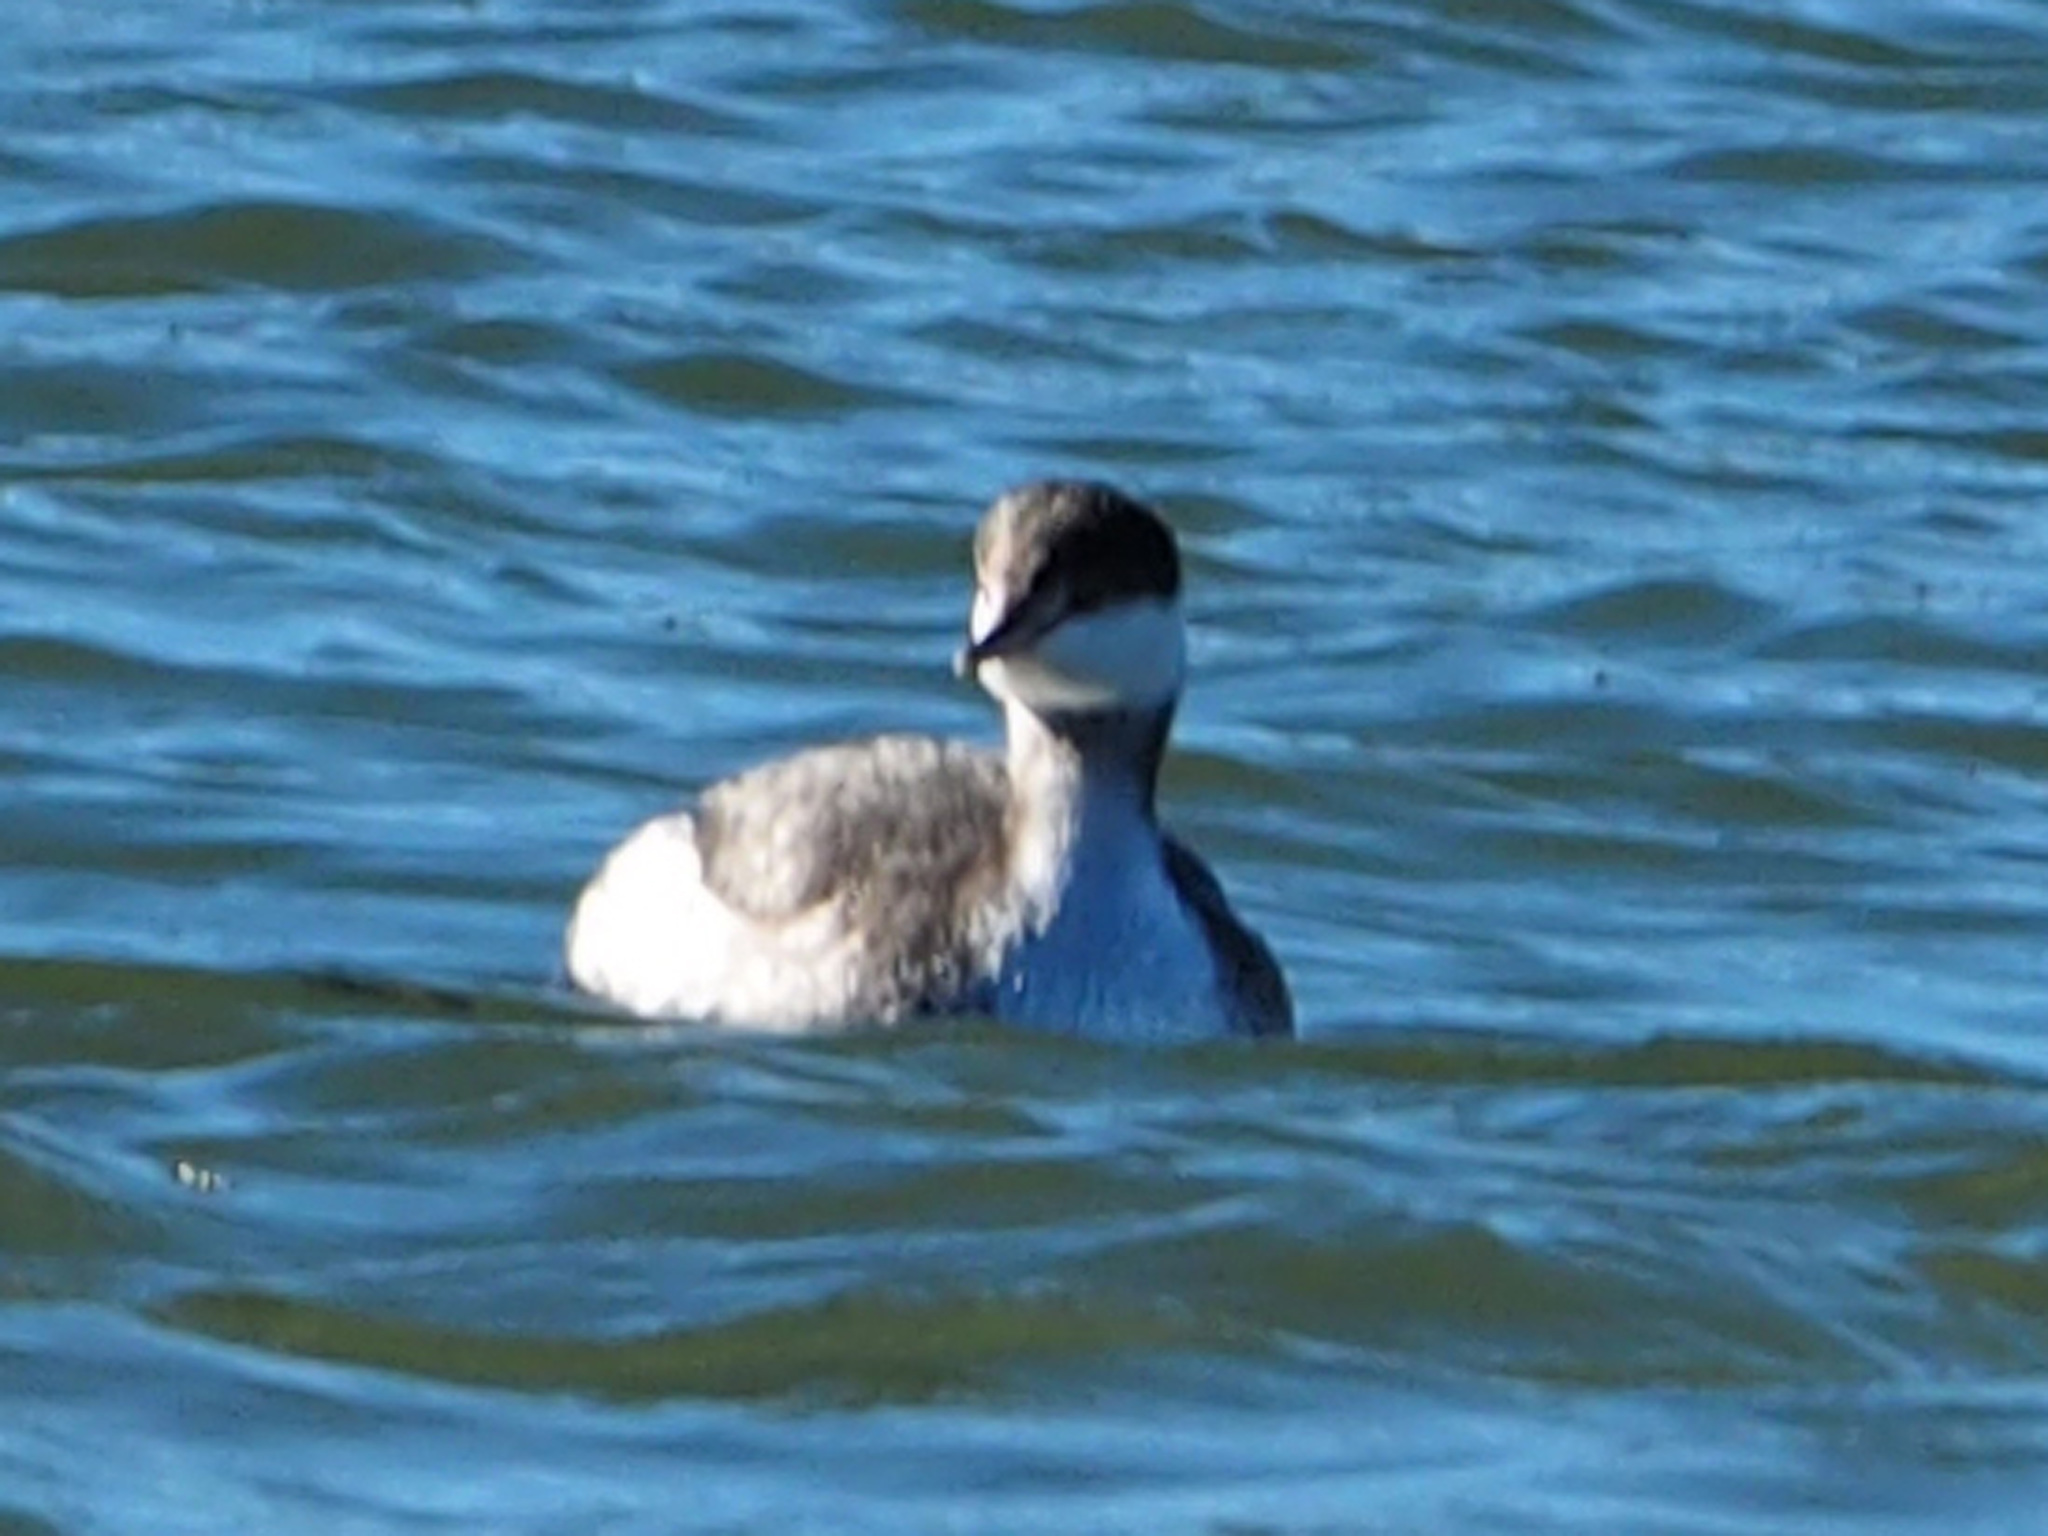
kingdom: Animalia
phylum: Chordata
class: Aves
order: Podicipediformes
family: Podicipedidae
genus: Podiceps
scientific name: Podiceps auritus
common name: Horned grebe
